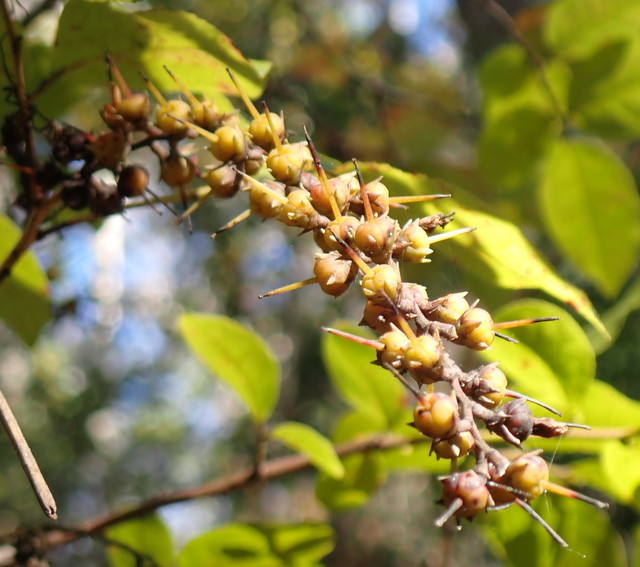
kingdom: Plantae
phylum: Tracheophyta
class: Magnoliopsida
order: Ericales
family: Ericaceae
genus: Eubotrys
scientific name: Eubotrys racemosa
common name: Fetterbush
